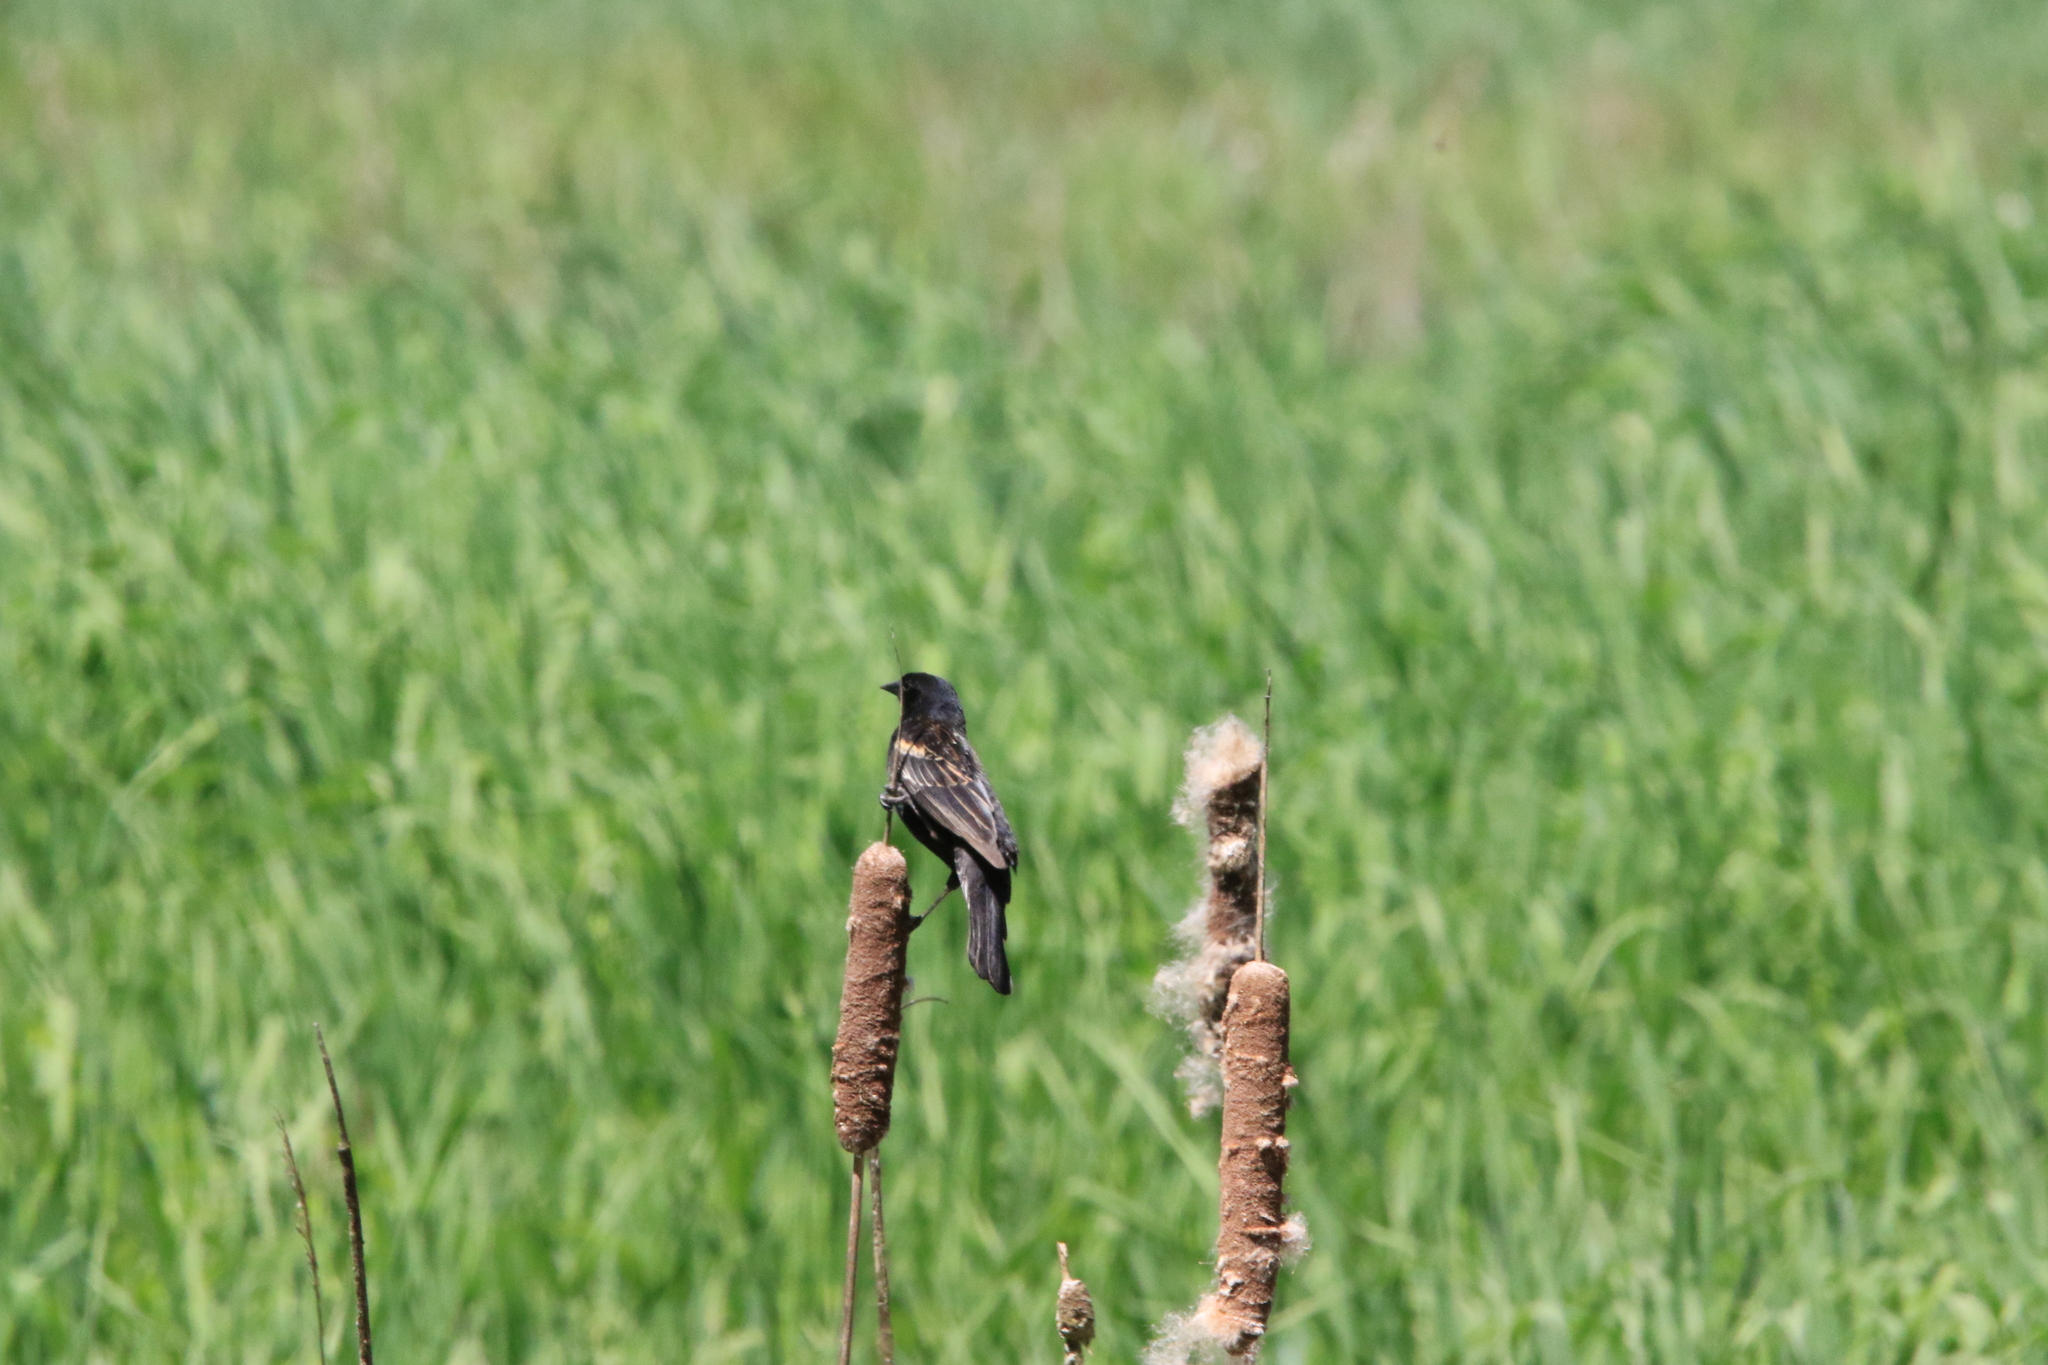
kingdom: Animalia
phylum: Chordata
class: Aves
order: Passeriformes
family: Icteridae
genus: Agelaius
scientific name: Agelaius phoeniceus
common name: Red-winged blackbird
